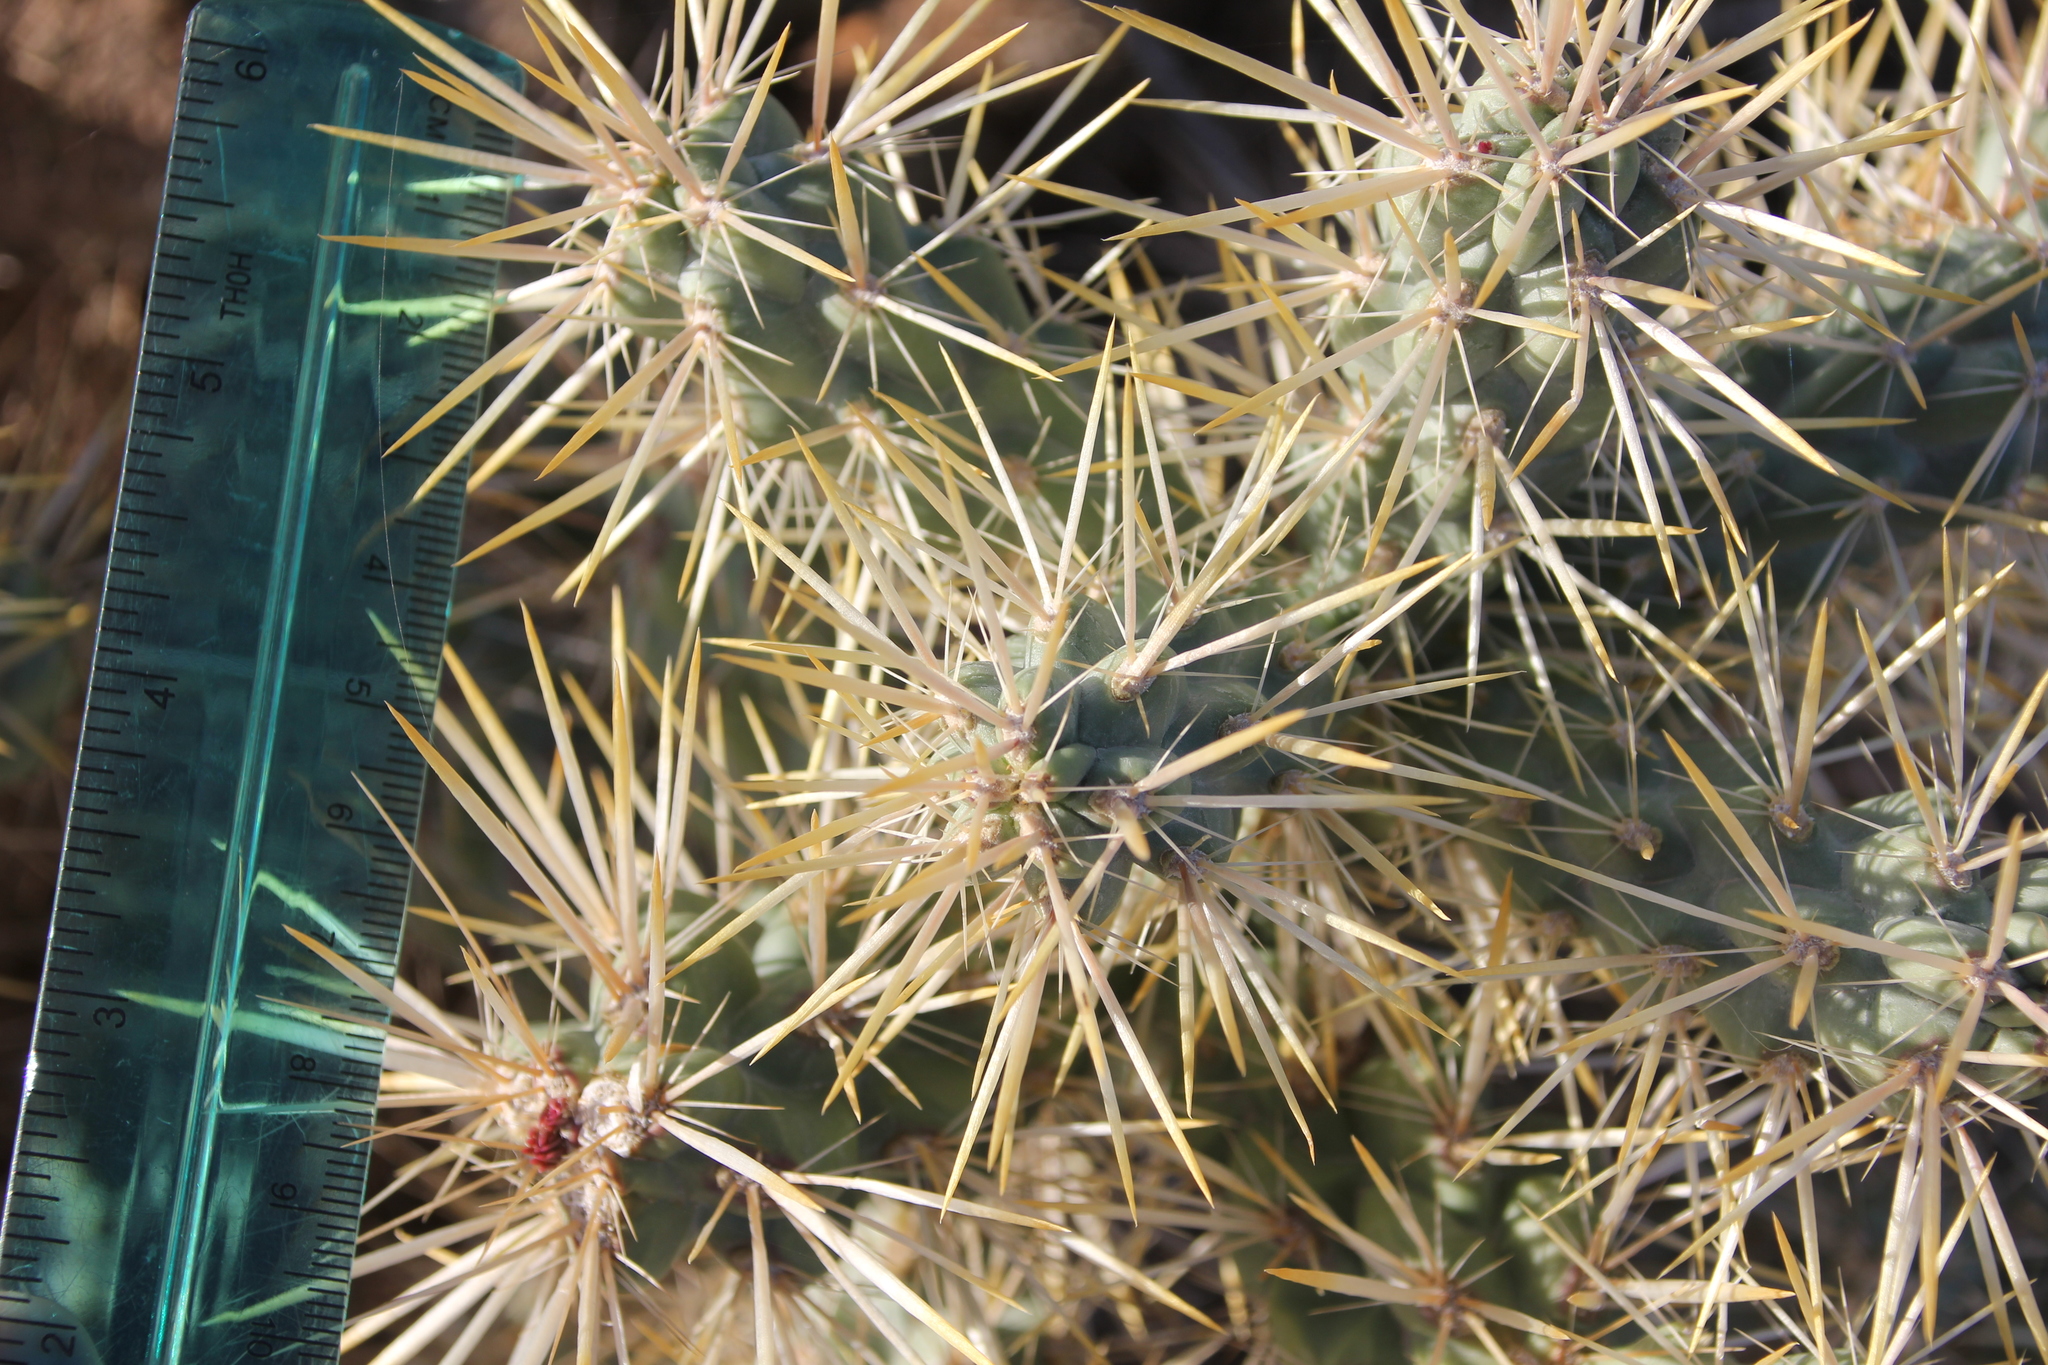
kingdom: Plantae
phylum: Tracheophyta
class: Magnoliopsida
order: Caryophyllales
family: Cactaceae
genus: Cylindropuntia
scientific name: Cylindropuntia echinocarpa
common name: Ground cholla
